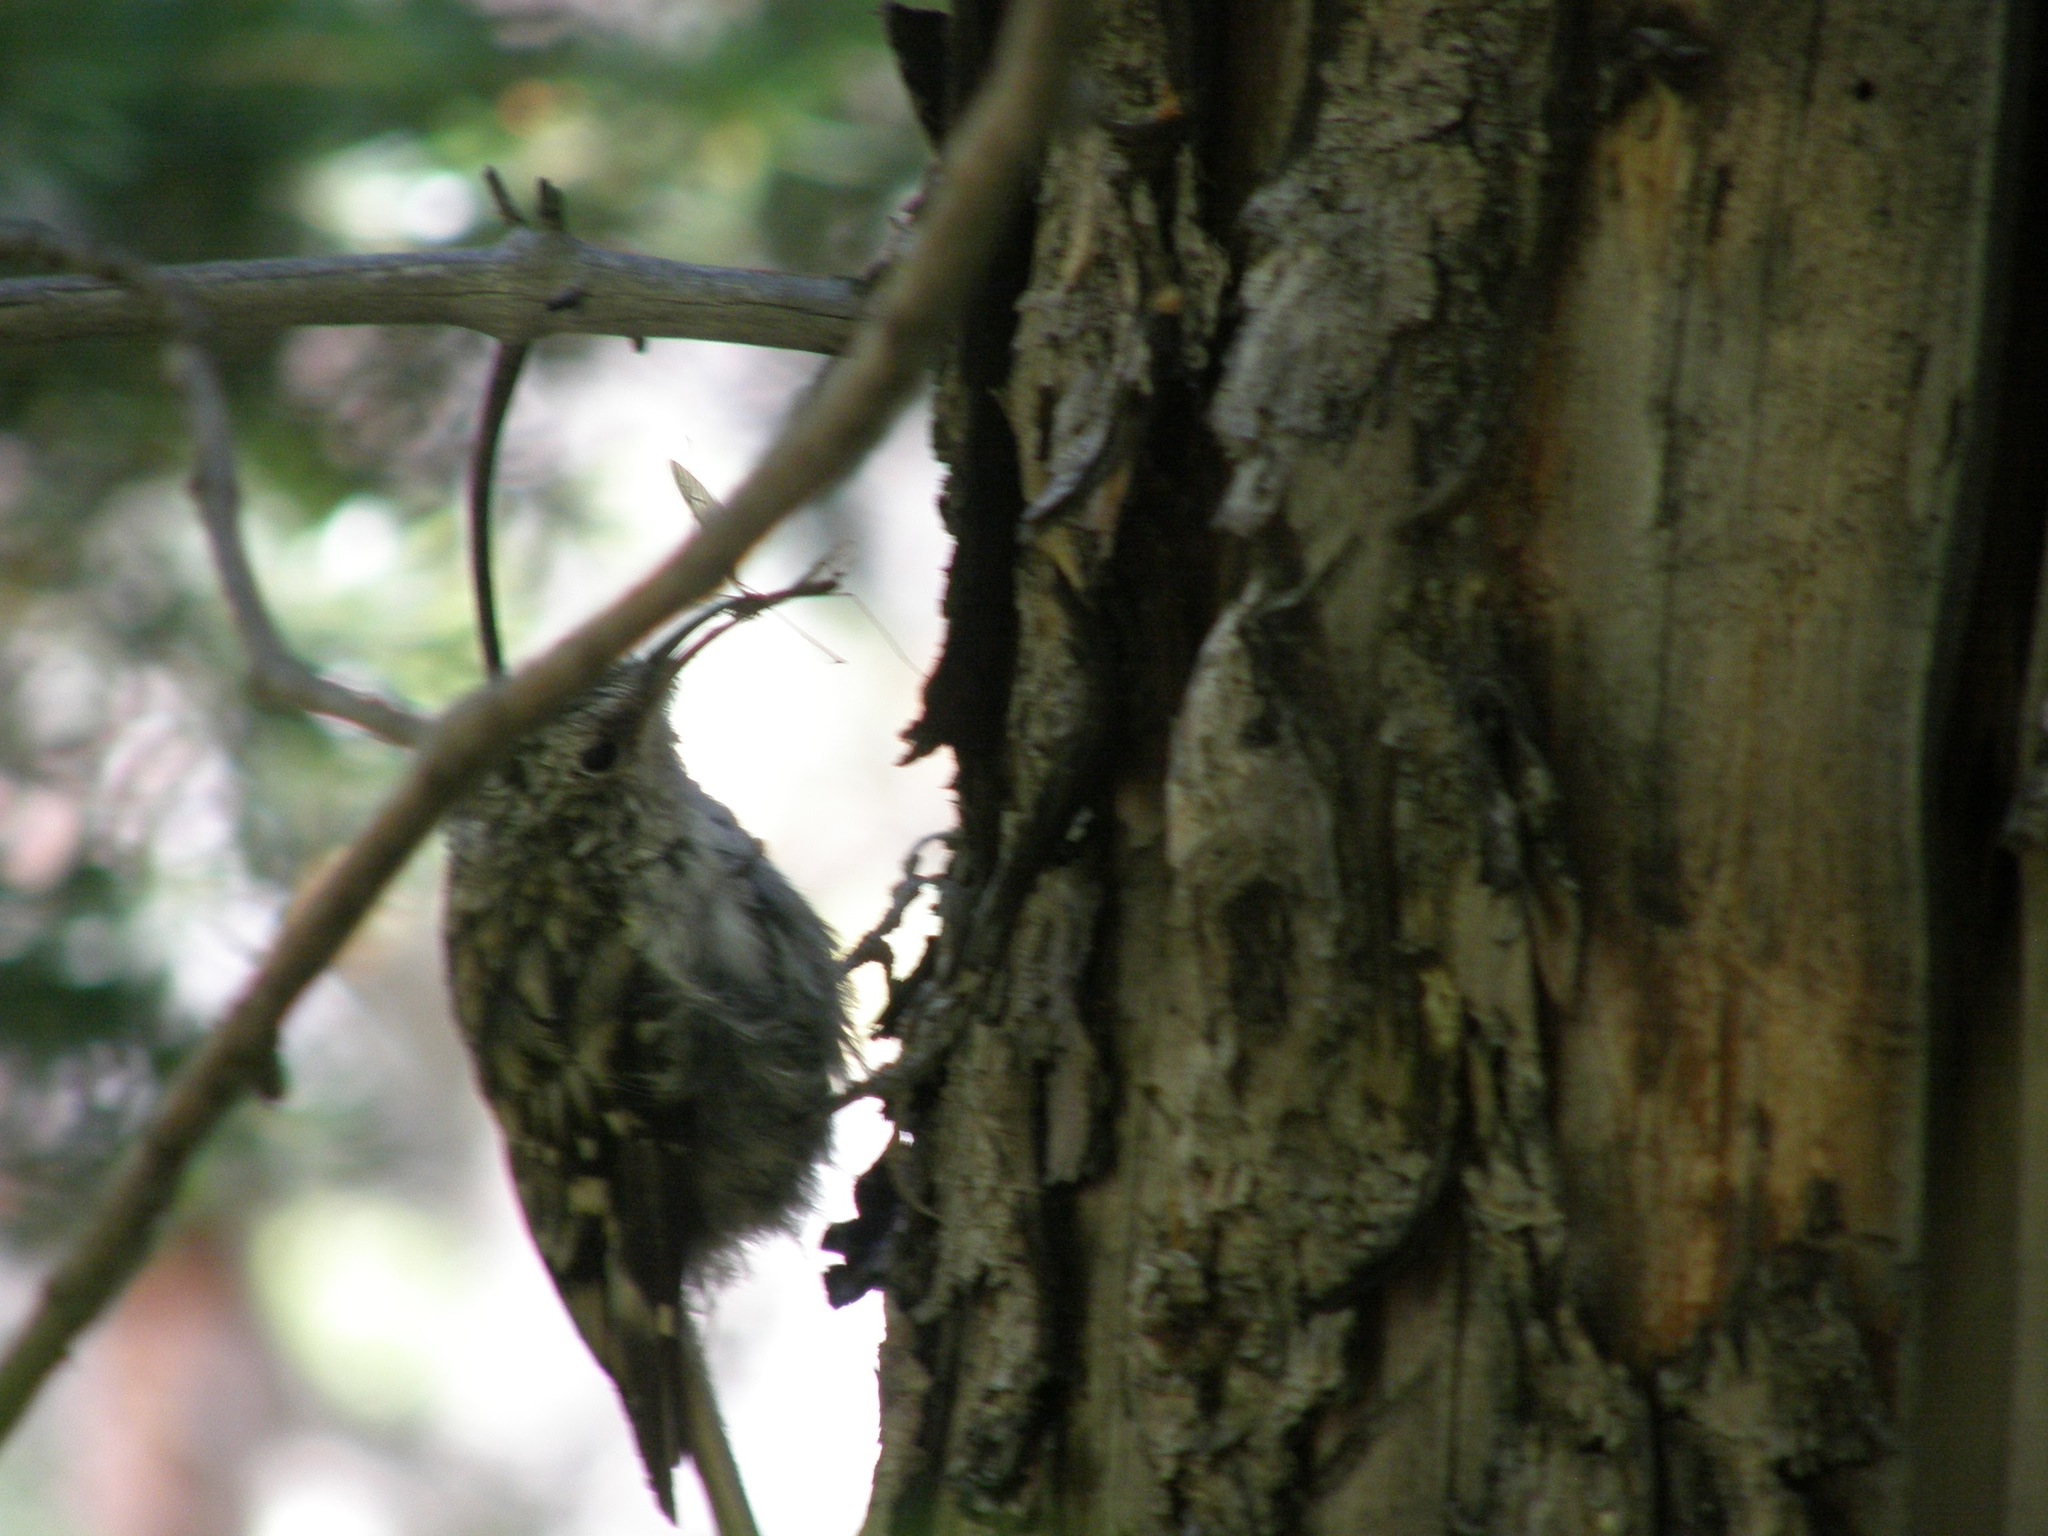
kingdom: Animalia
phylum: Chordata
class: Aves
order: Passeriformes
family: Certhiidae
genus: Certhia
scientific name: Certhia americana
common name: Brown creeper
